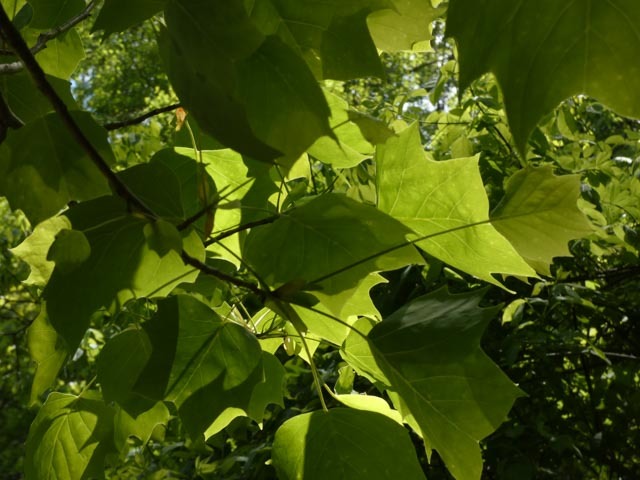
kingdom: Plantae
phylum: Tracheophyta
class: Magnoliopsida
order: Magnoliales
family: Magnoliaceae
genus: Liriodendron
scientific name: Liriodendron tulipifera
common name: Tulip tree
